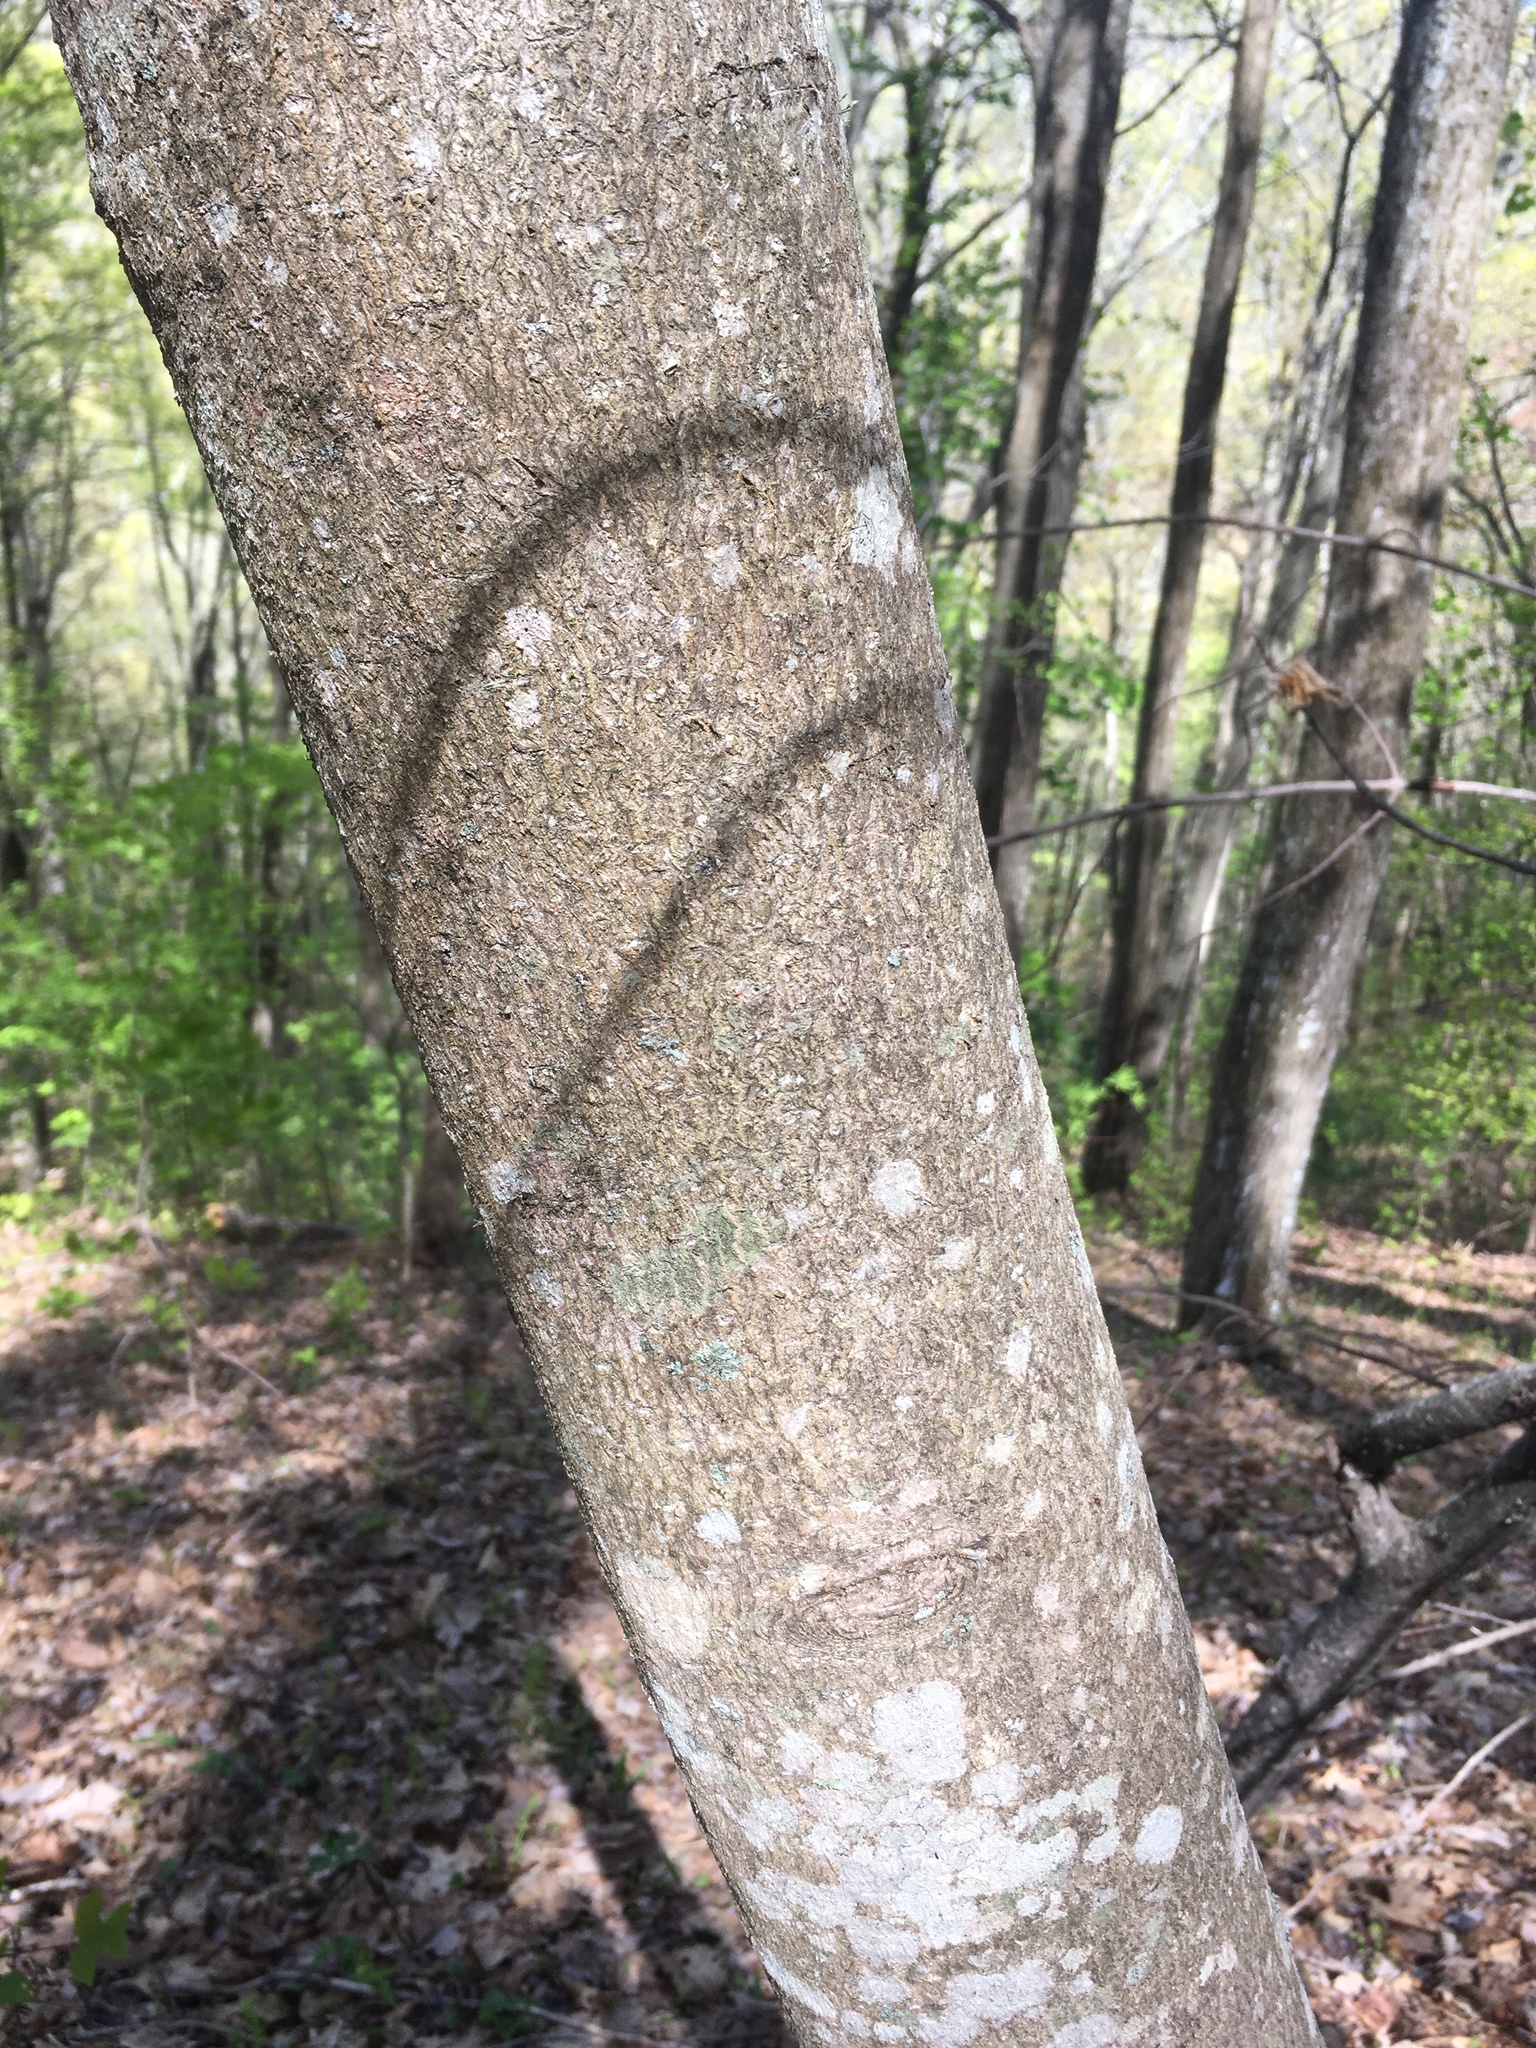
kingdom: Plantae
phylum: Tracheophyta
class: Magnoliopsida
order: Magnoliales
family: Magnoliaceae
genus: Magnolia
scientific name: Magnolia fraseri
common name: Fraser's magnolia
